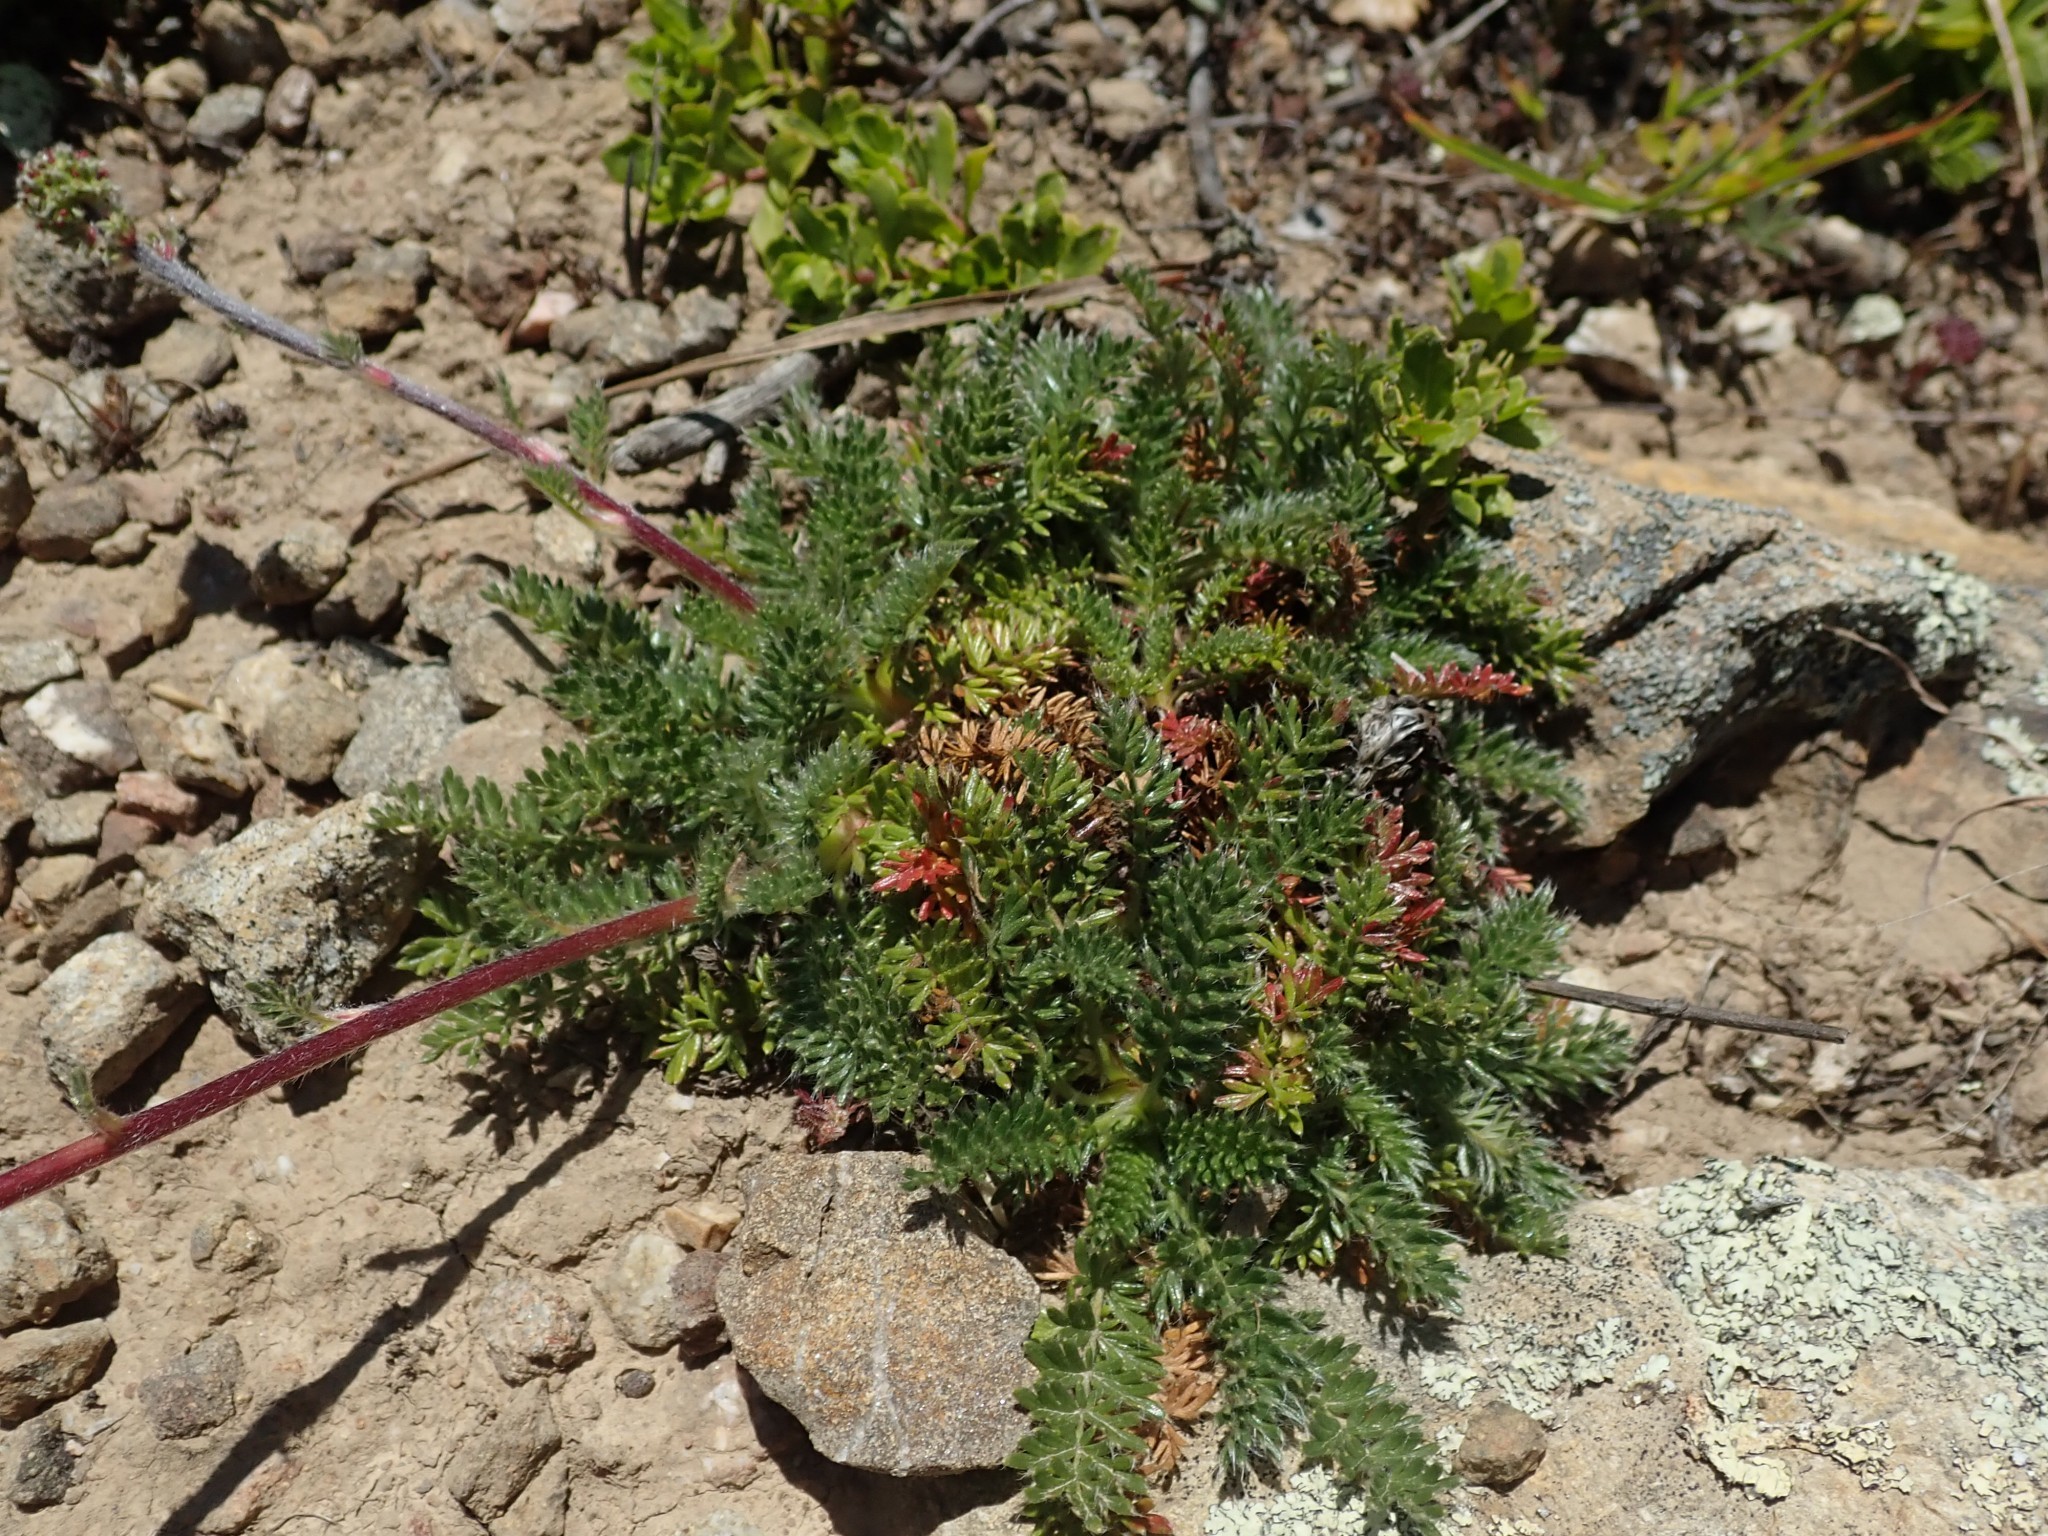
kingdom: Plantae
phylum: Tracheophyta
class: Magnoliopsida
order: Rosales
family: Rosaceae
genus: Acaena
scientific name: Acaena pinnatifida
